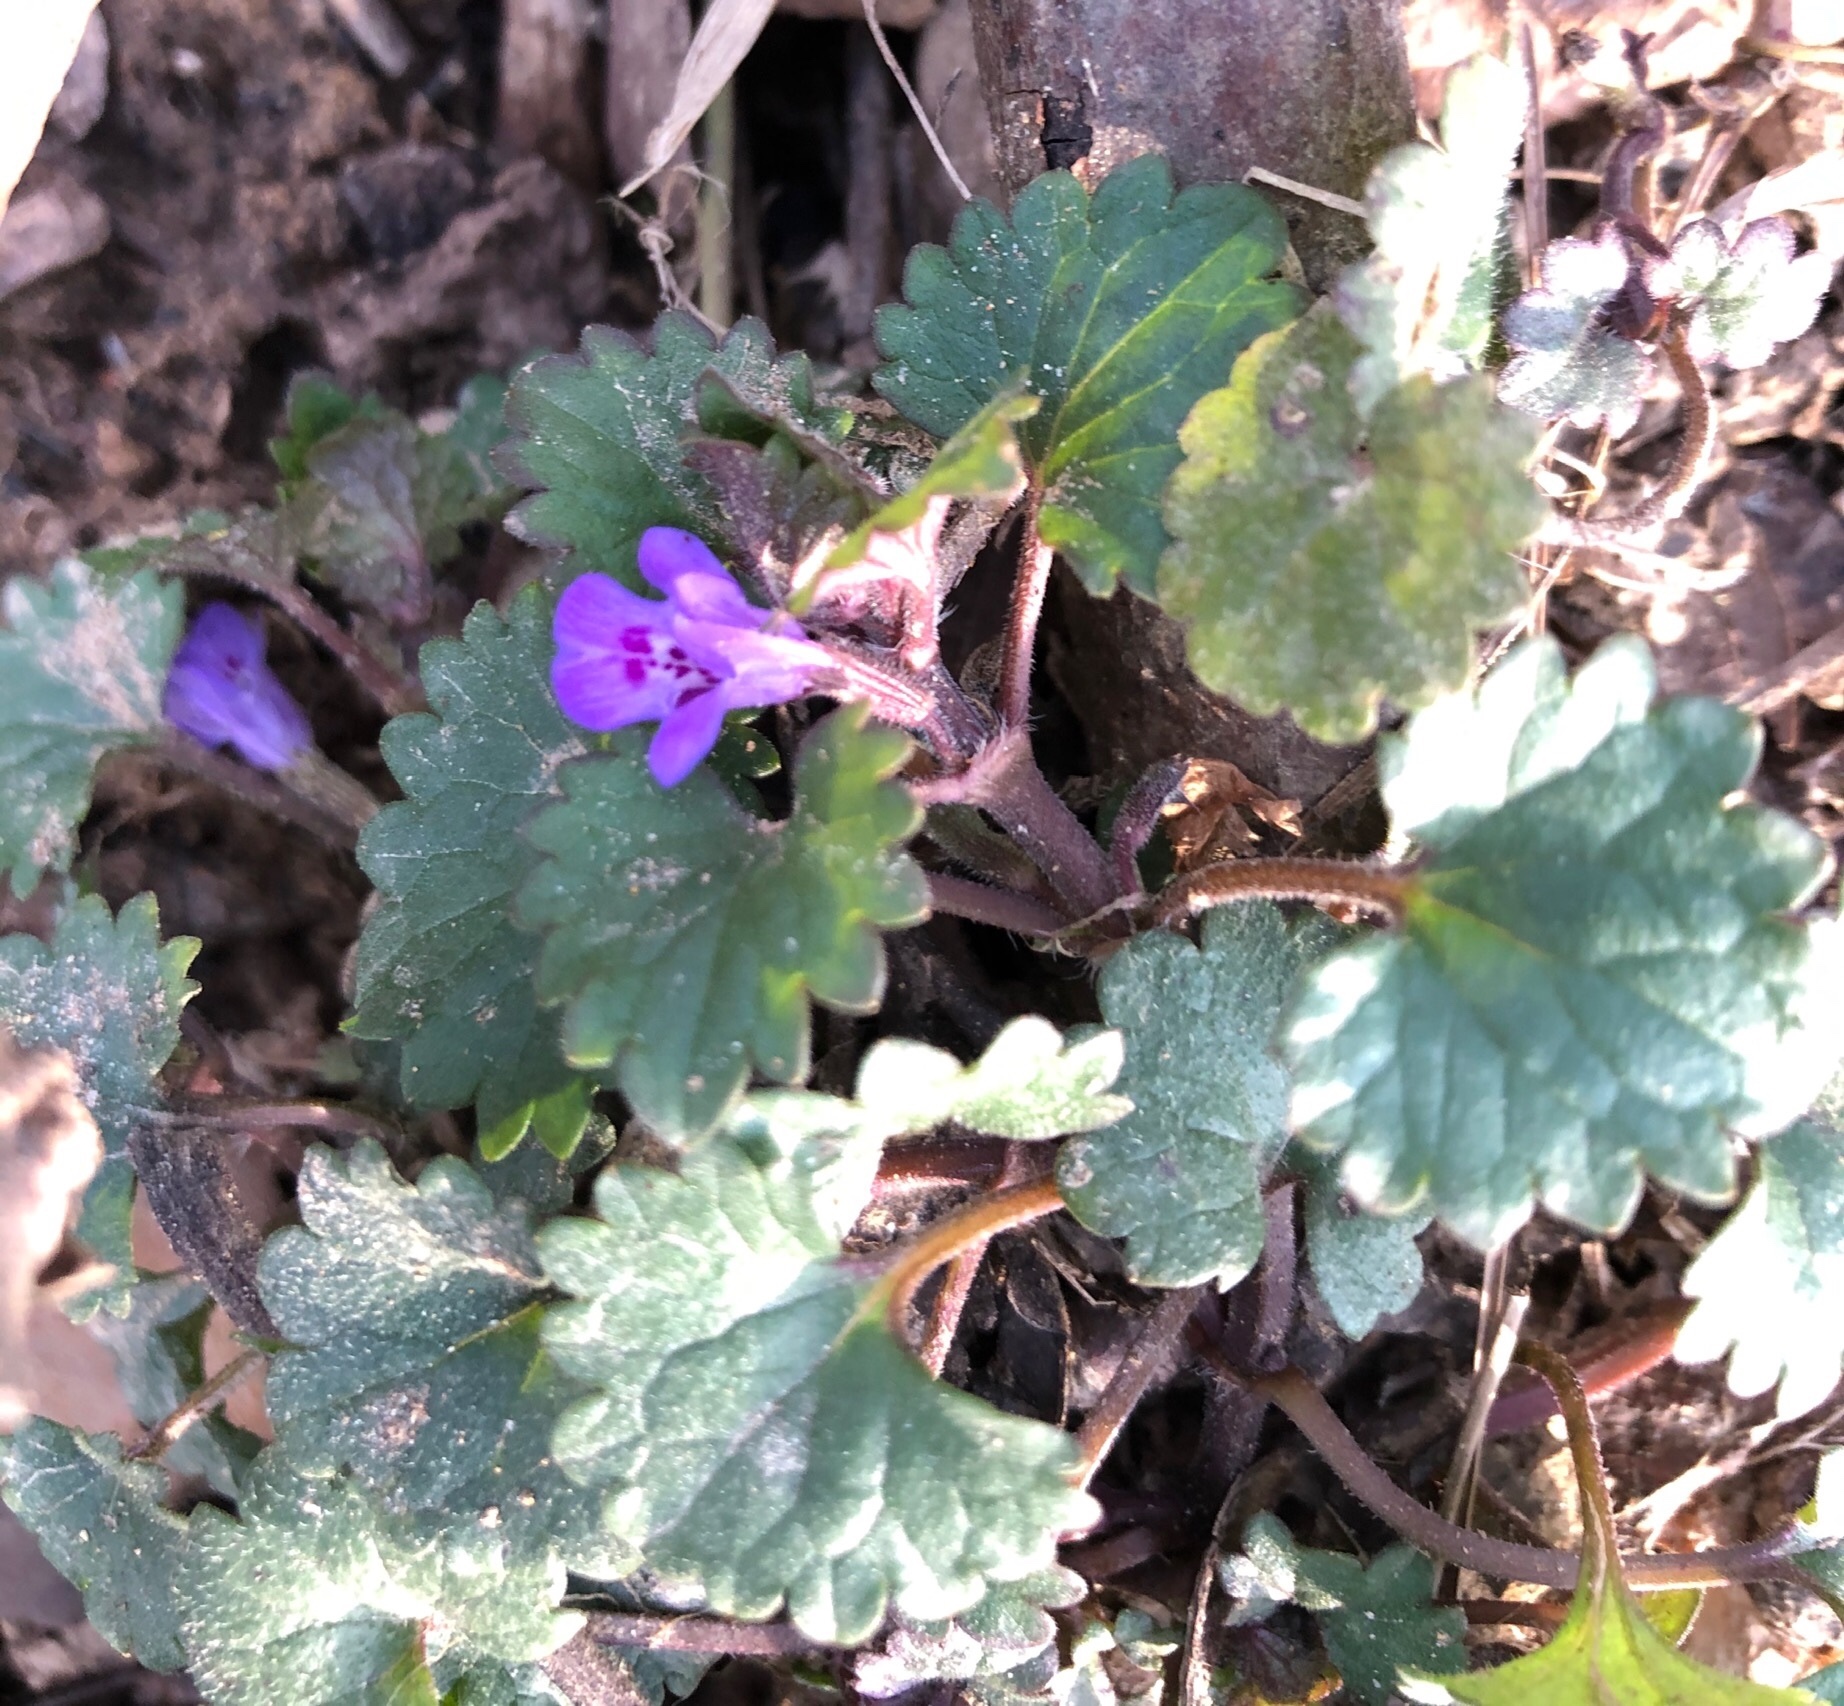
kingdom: Plantae
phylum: Tracheophyta
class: Magnoliopsida
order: Lamiales
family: Lamiaceae
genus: Glechoma
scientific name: Glechoma hederacea
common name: Ground ivy
